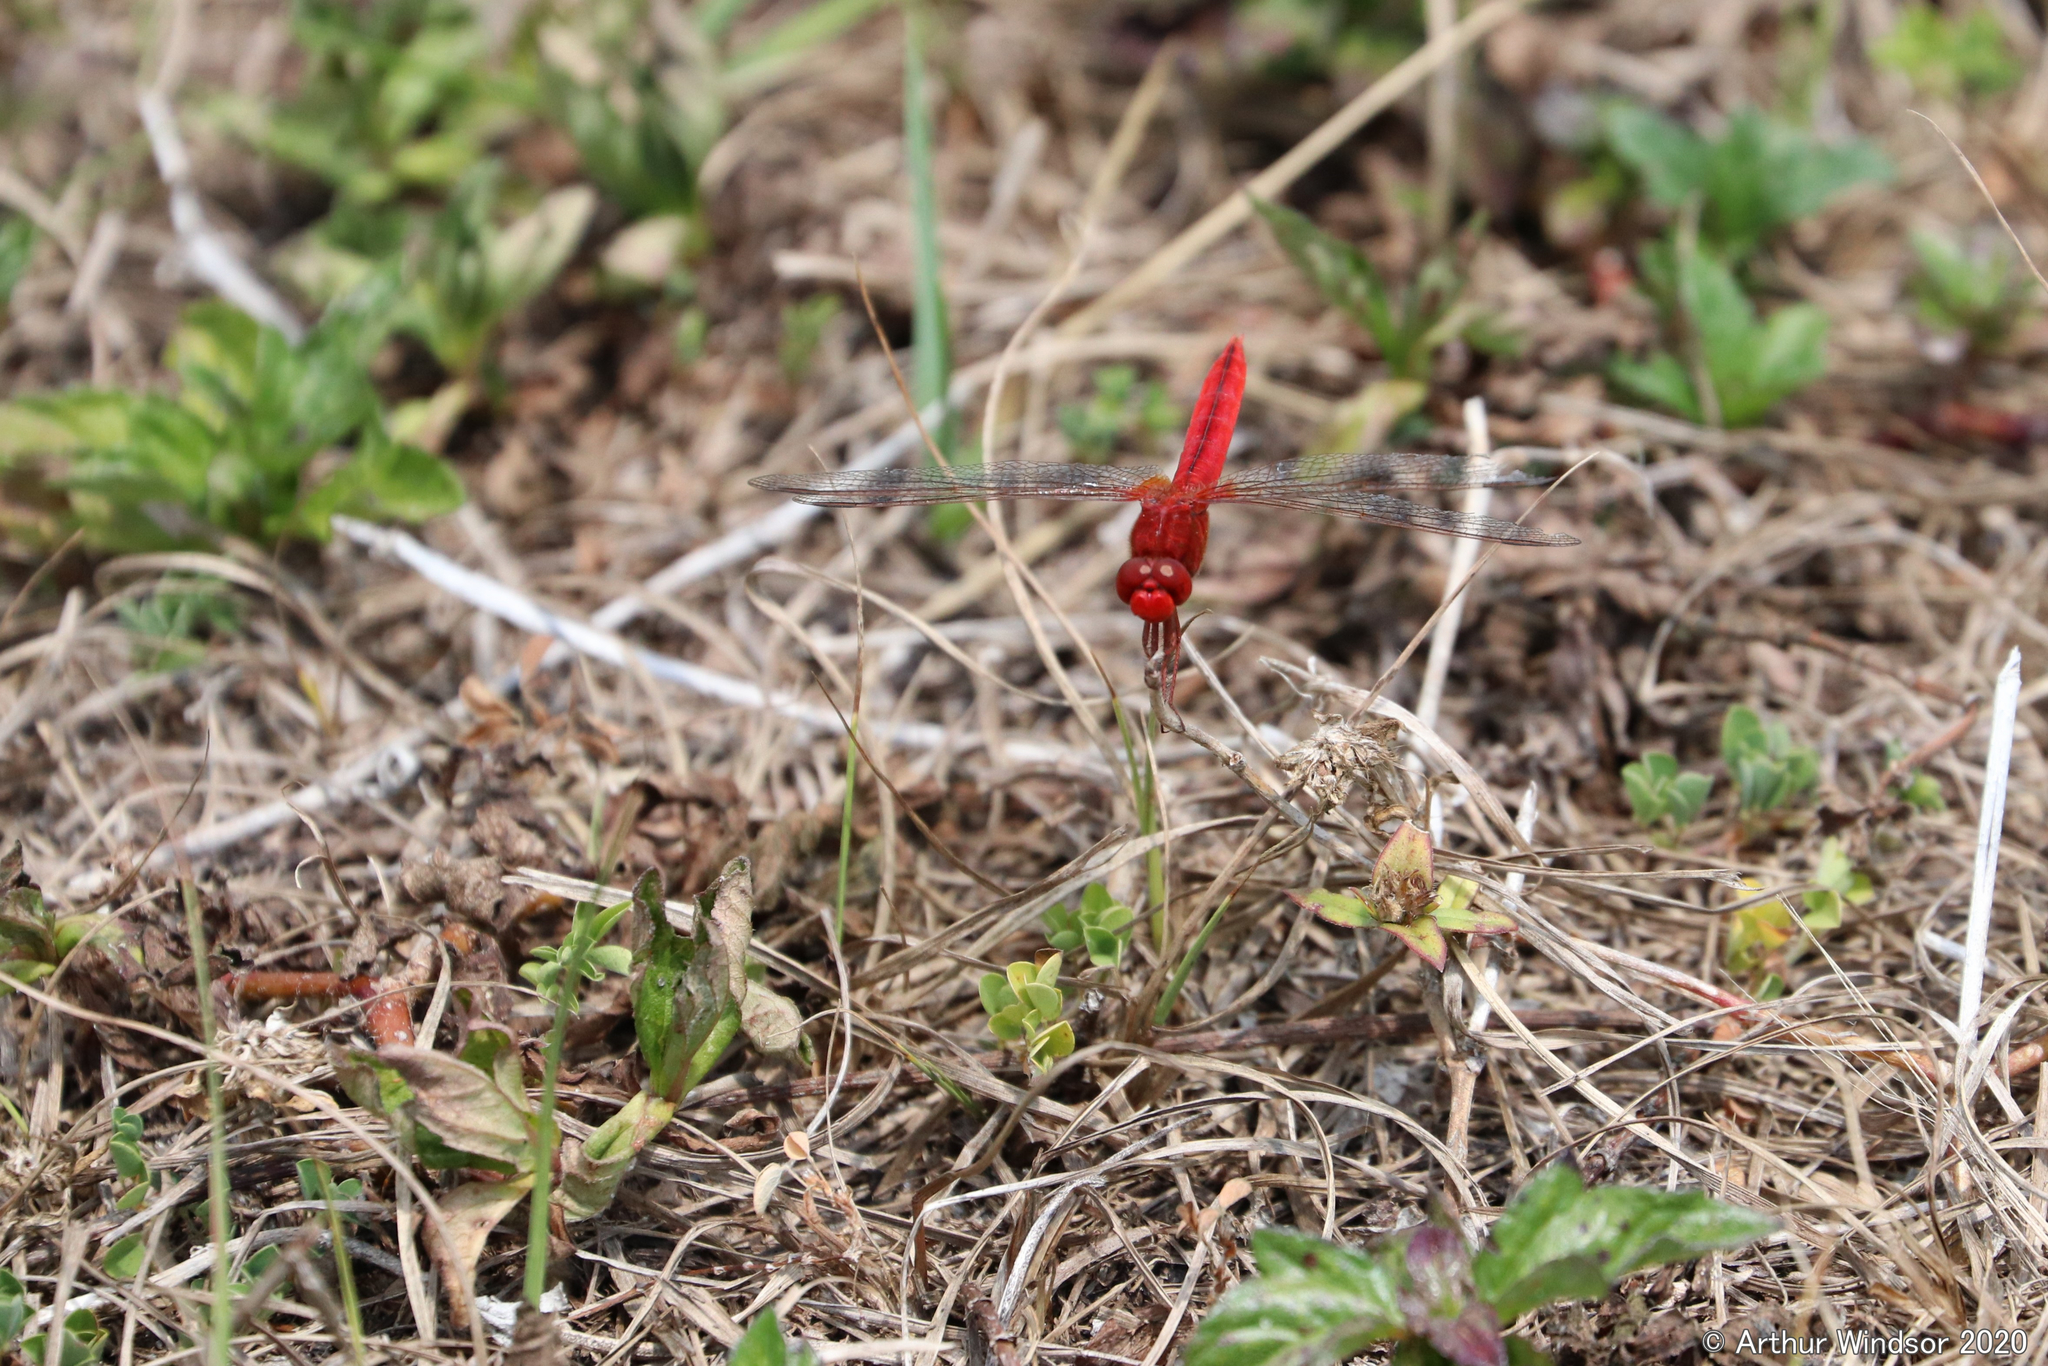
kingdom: Animalia
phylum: Arthropoda
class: Insecta
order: Odonata
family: Libellulidae
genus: Crocothemis
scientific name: Crocothemis servilia
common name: Scarlet skimmer
